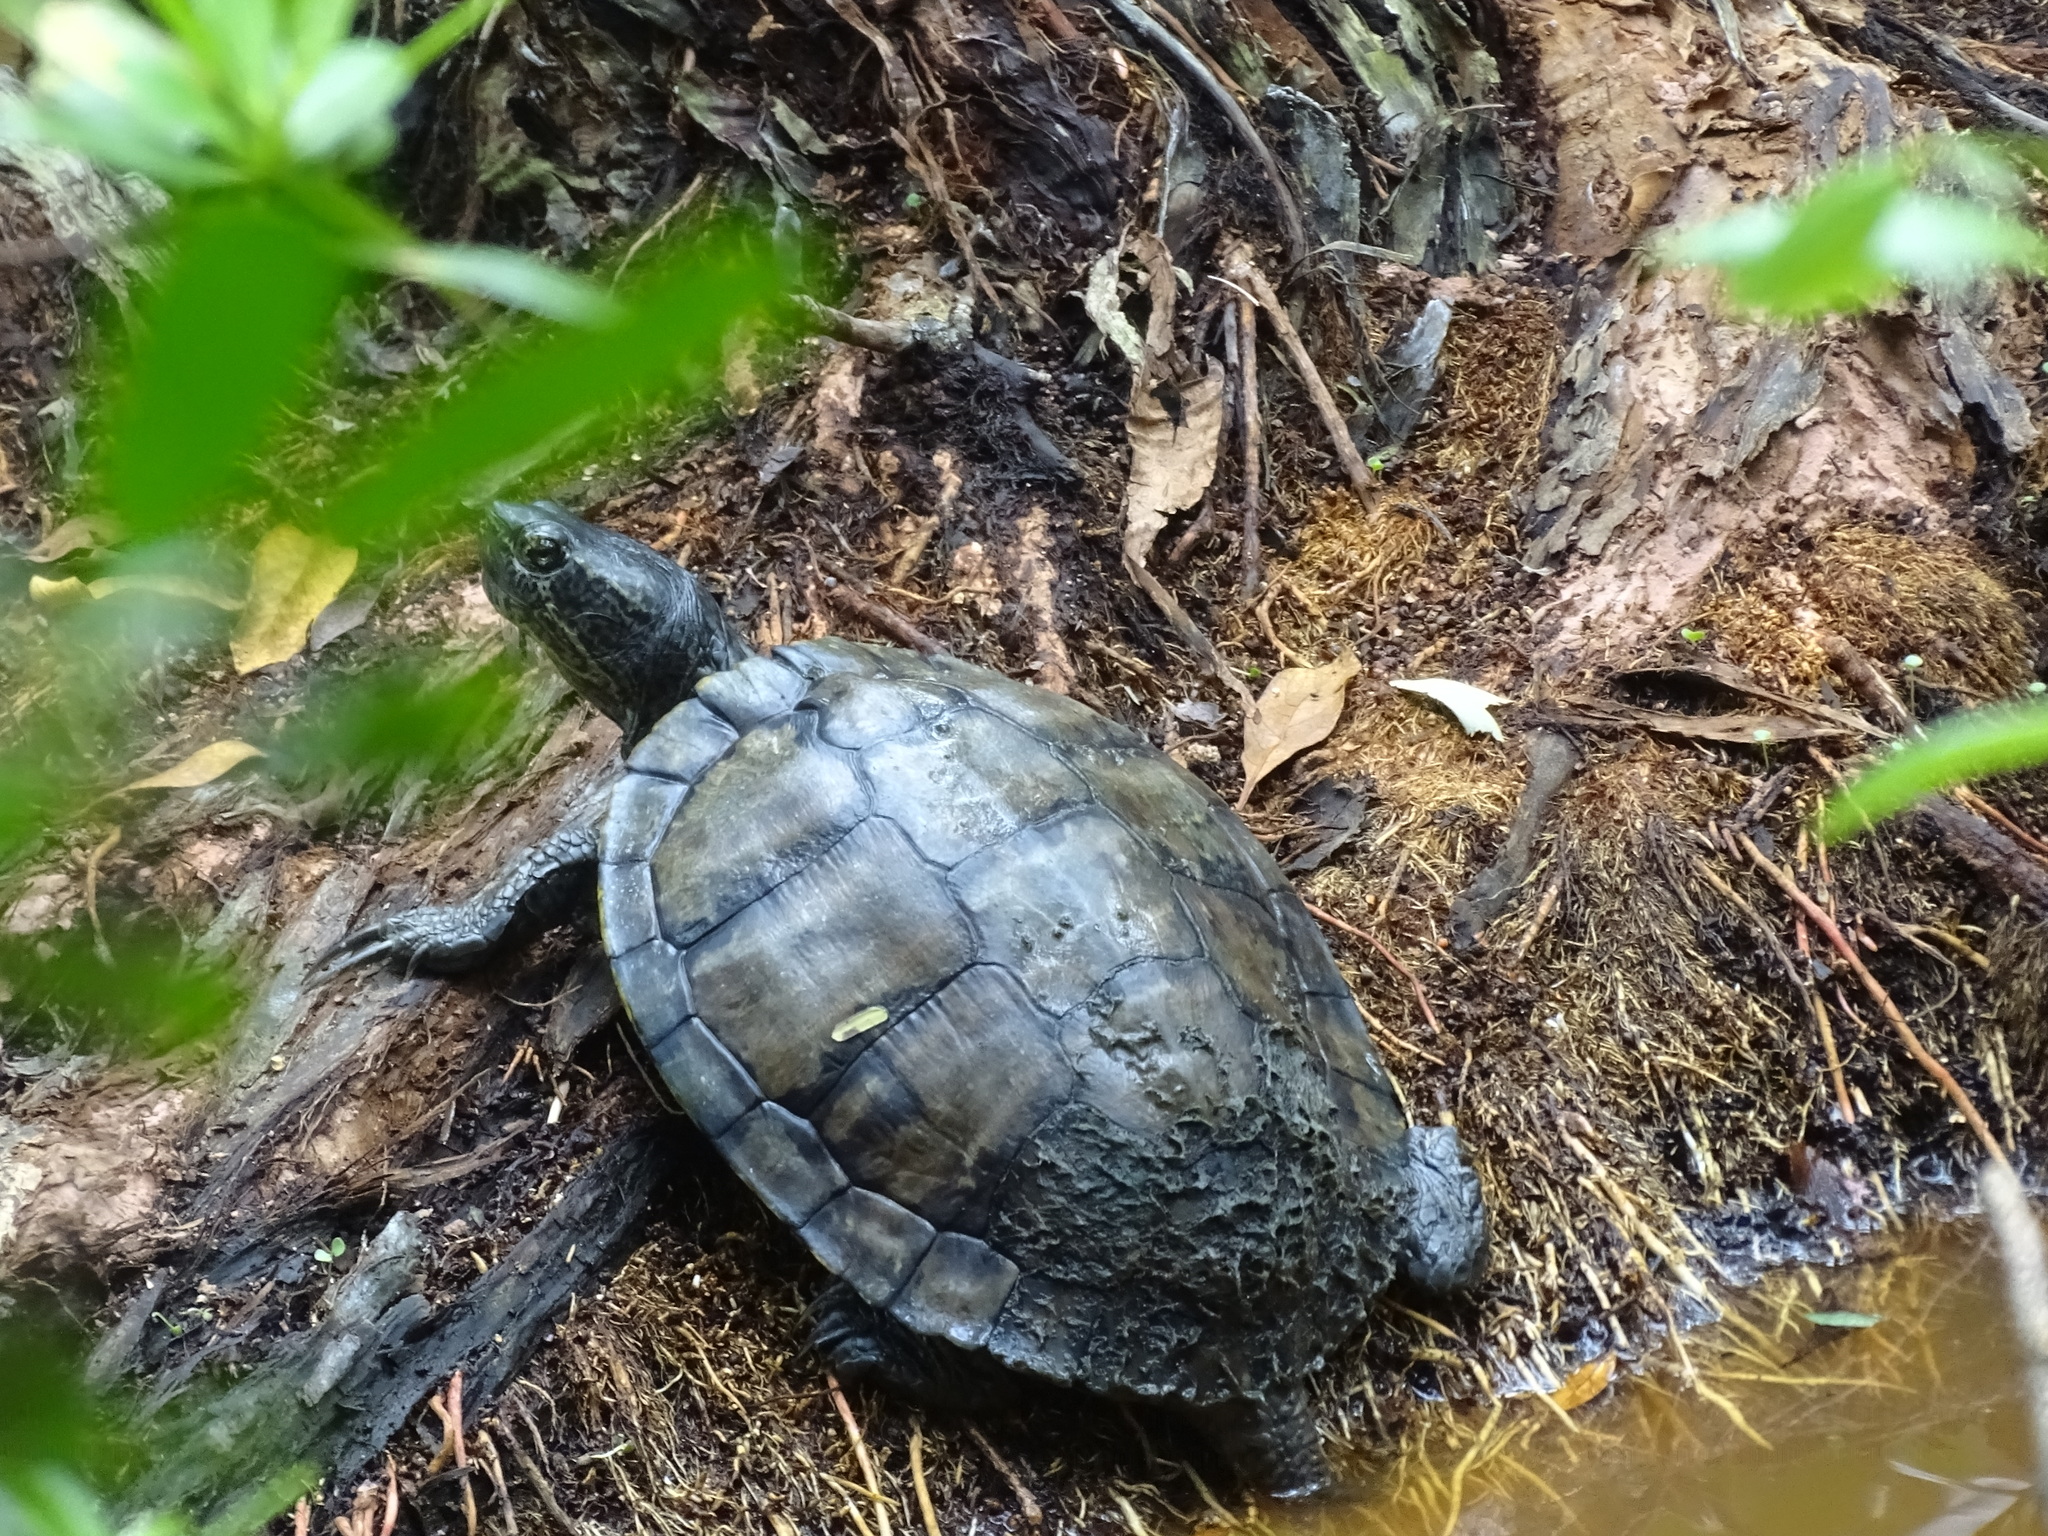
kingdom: Animalia
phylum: Chordata
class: Testudines
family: Emydidae
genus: Trachemys
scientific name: Trachemys scripta
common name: Slider
